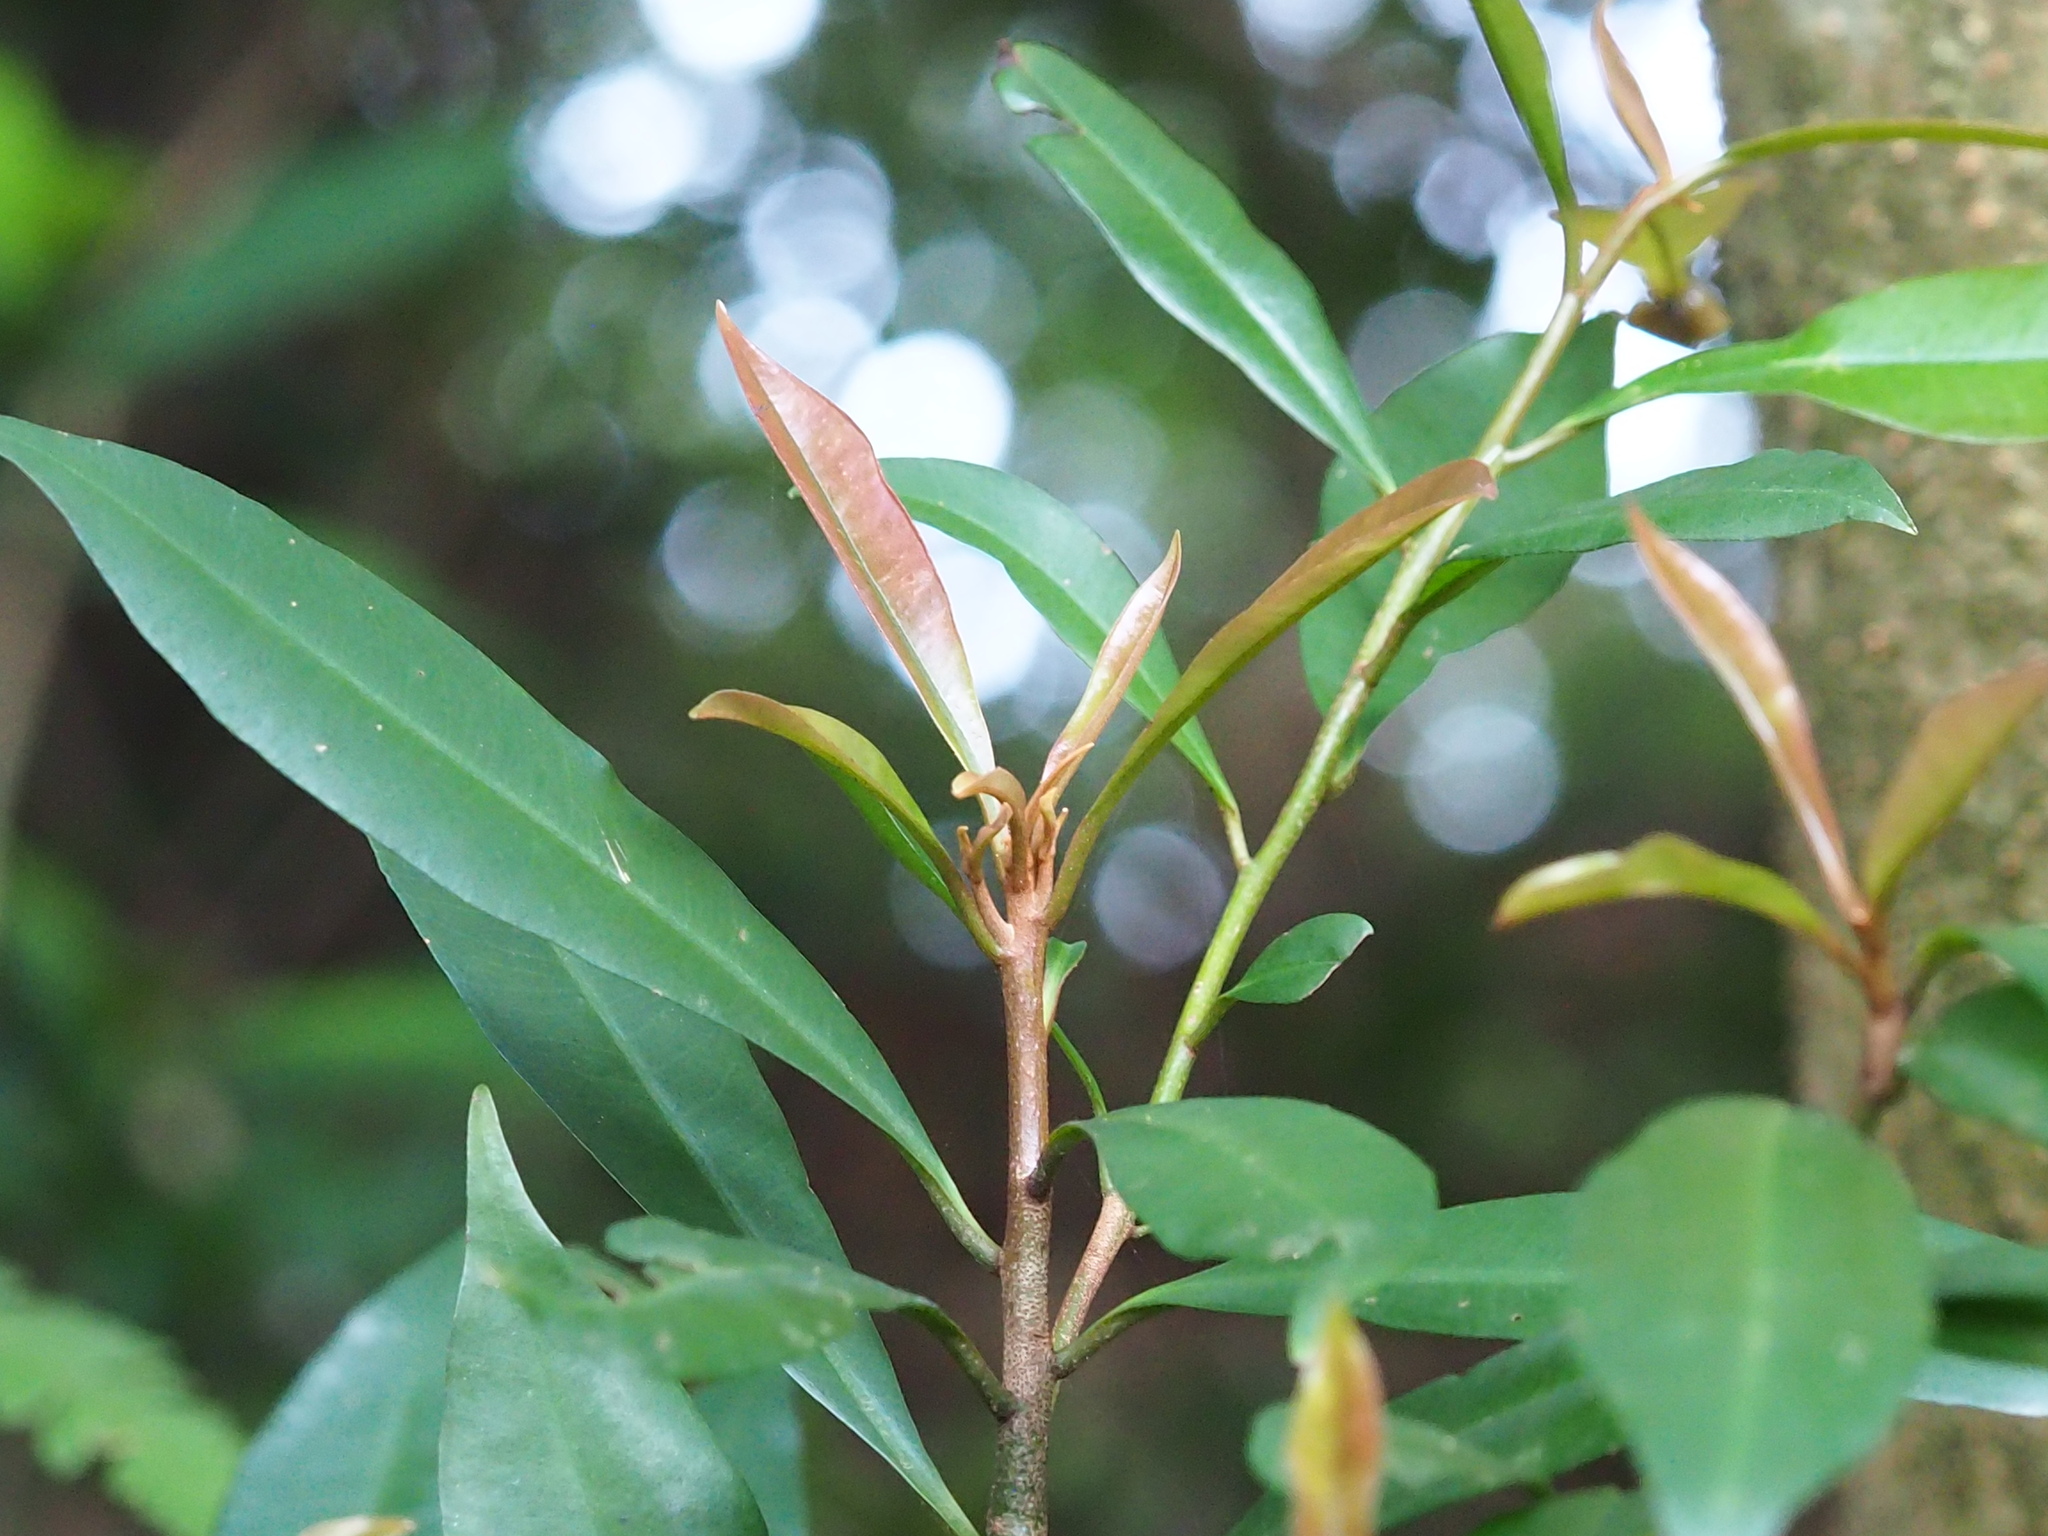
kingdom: Plantae
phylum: Tracheophyta
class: Magnoliopsida
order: Ericales
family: Primulaceae
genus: Ardisia
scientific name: Ardisia quinquegona
